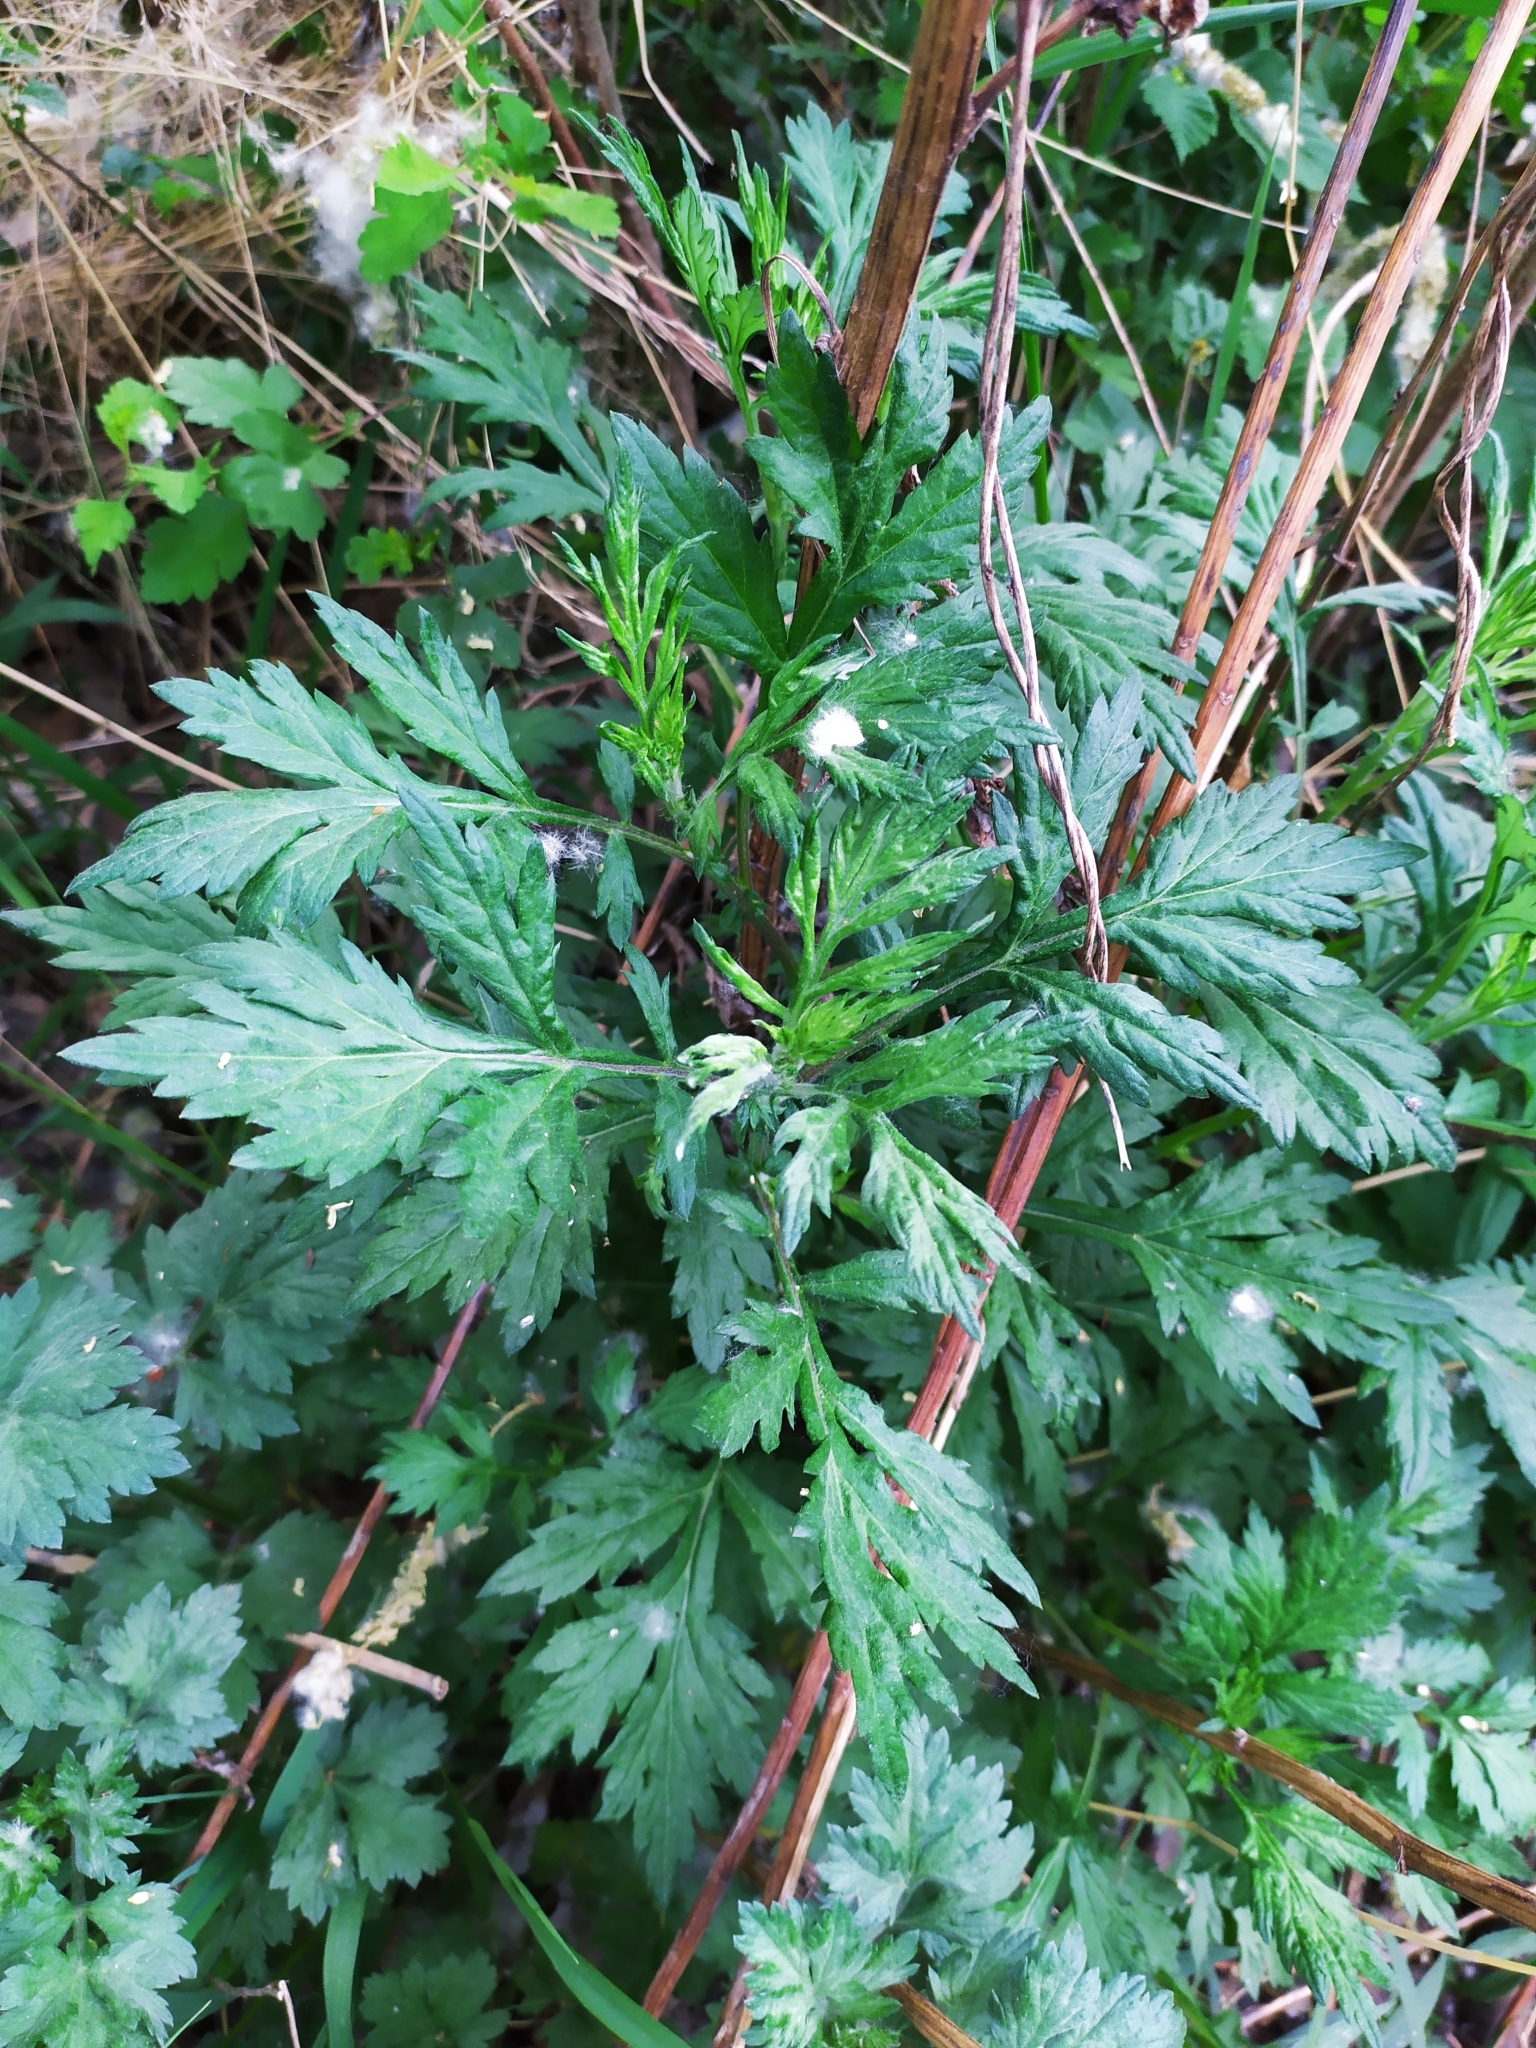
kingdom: Plantae
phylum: Tracheophyta
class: Magnoliopsida
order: Asterales
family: Asteraceae
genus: Artemisia
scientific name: Artemisia vulgaris
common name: Mugwort
